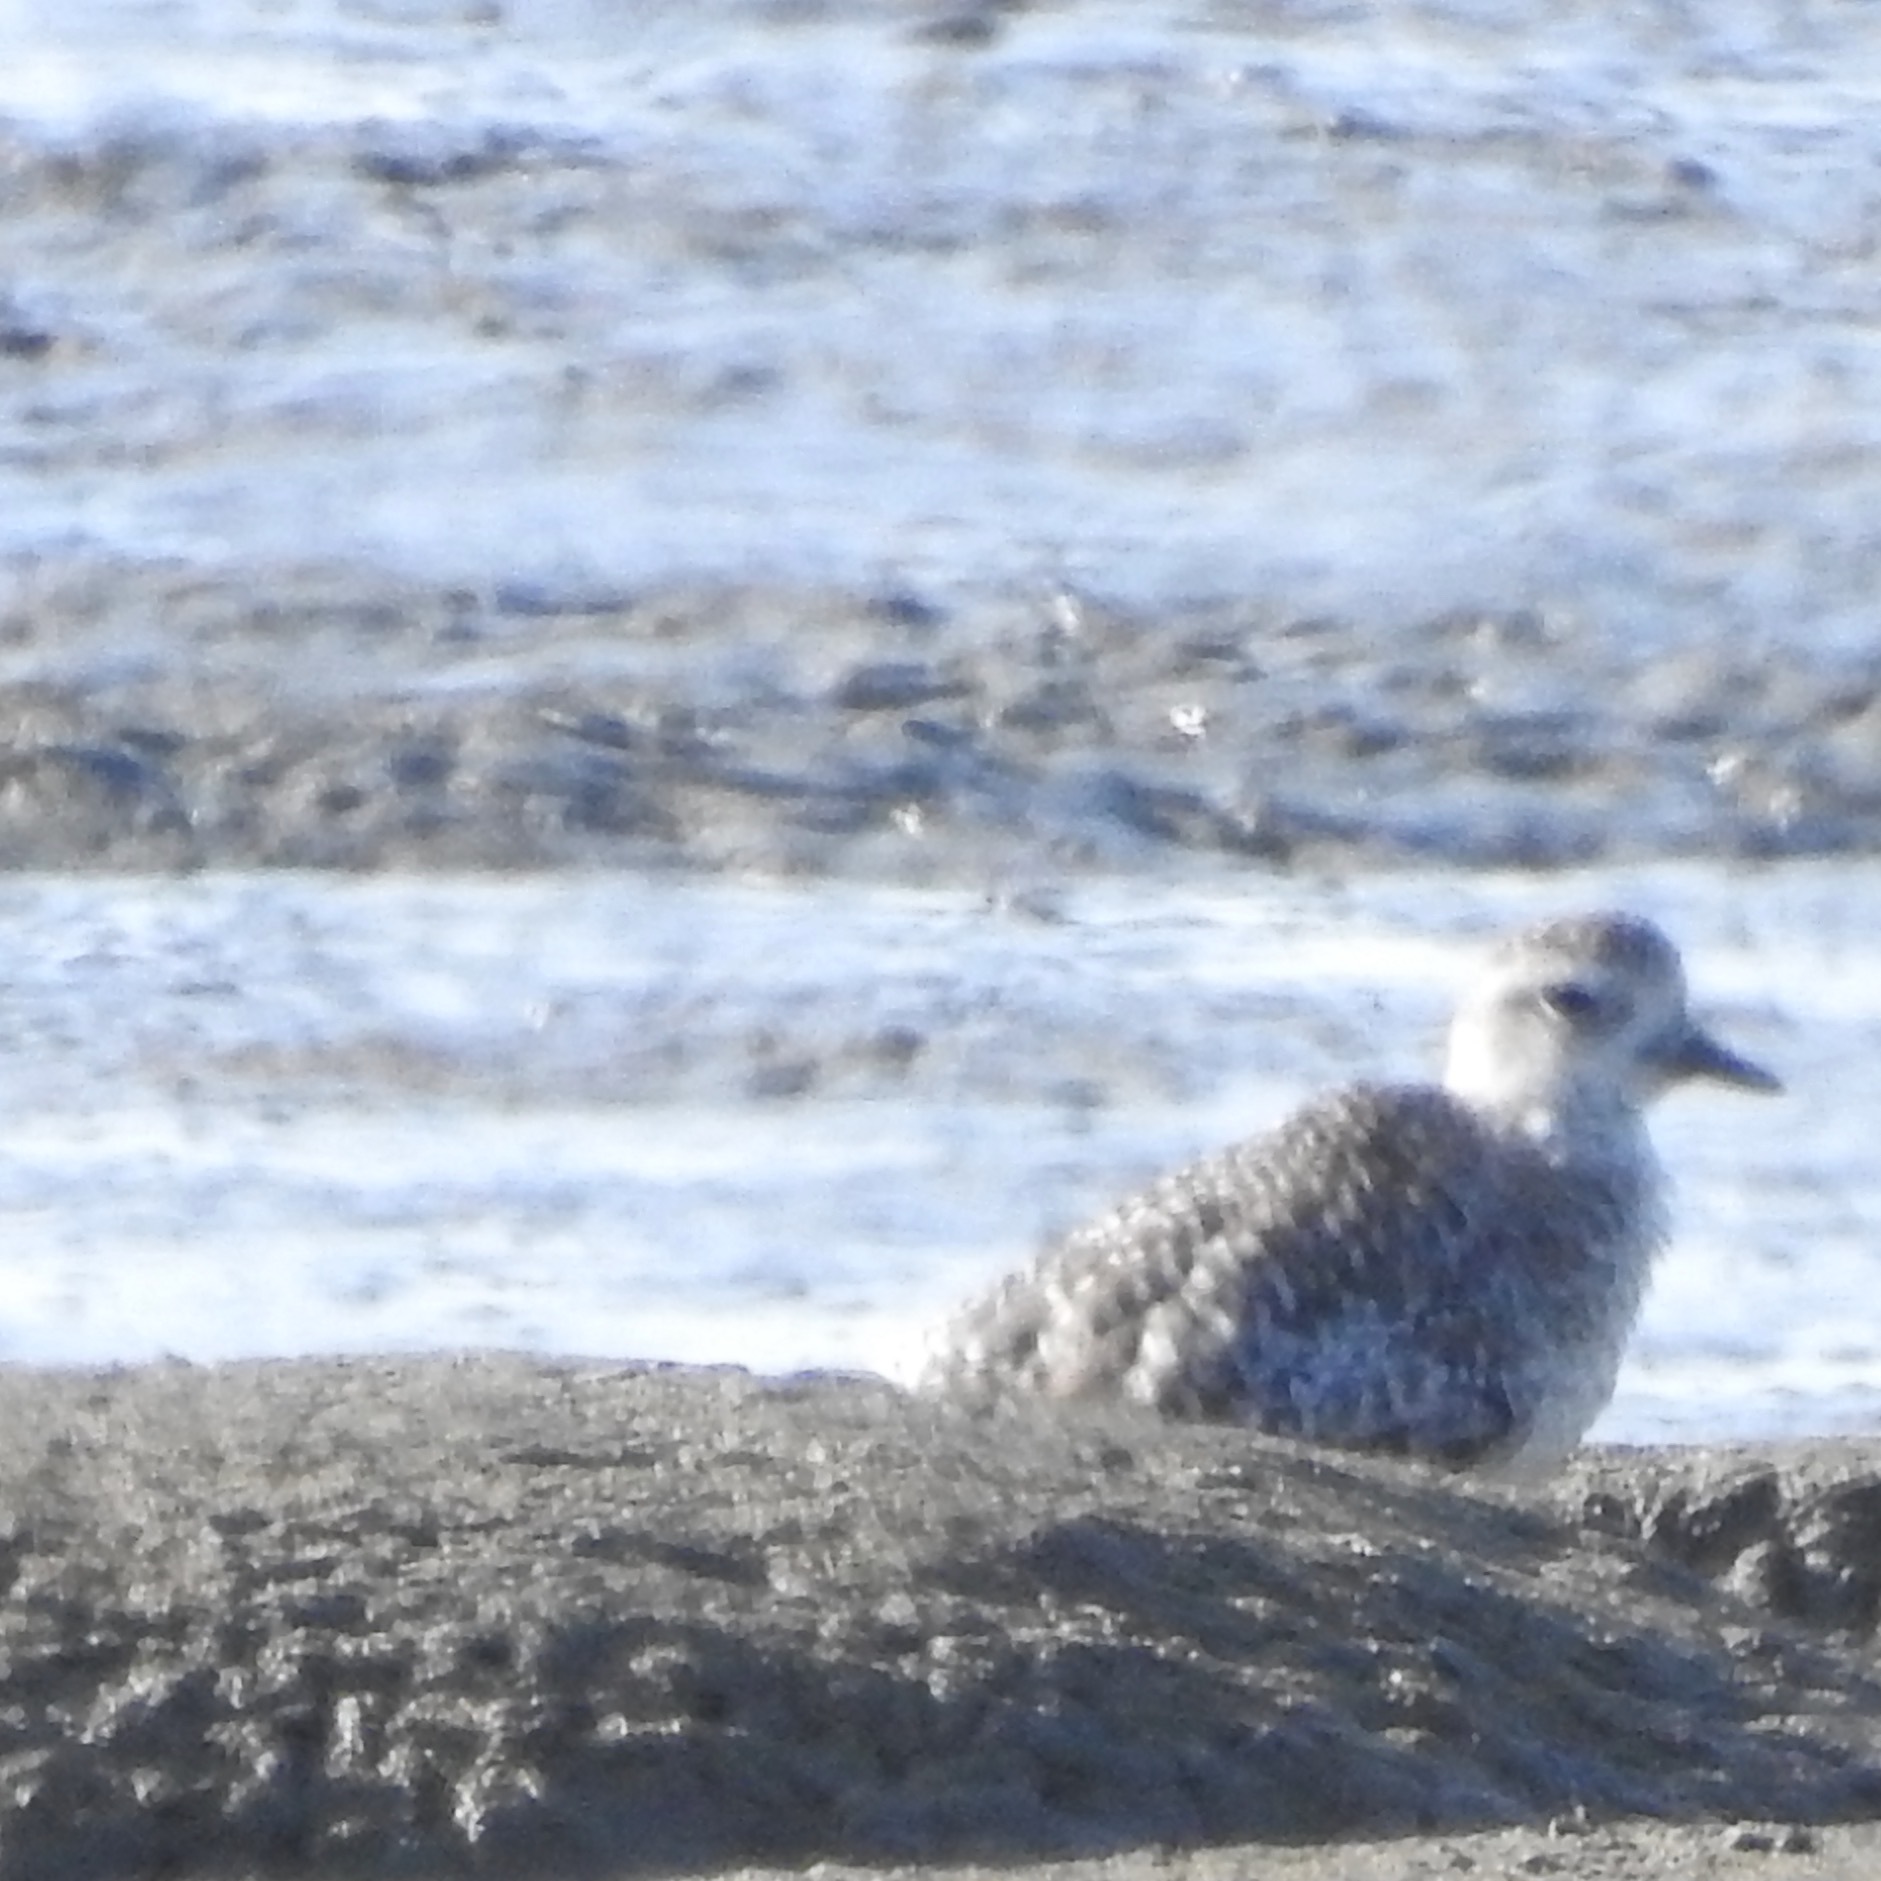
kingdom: Animalia
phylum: Chordata
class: Aves
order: Charadriiformes
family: Charadriidae
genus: Pluvialis
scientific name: Pluvialis squatarola
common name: Grey plover
